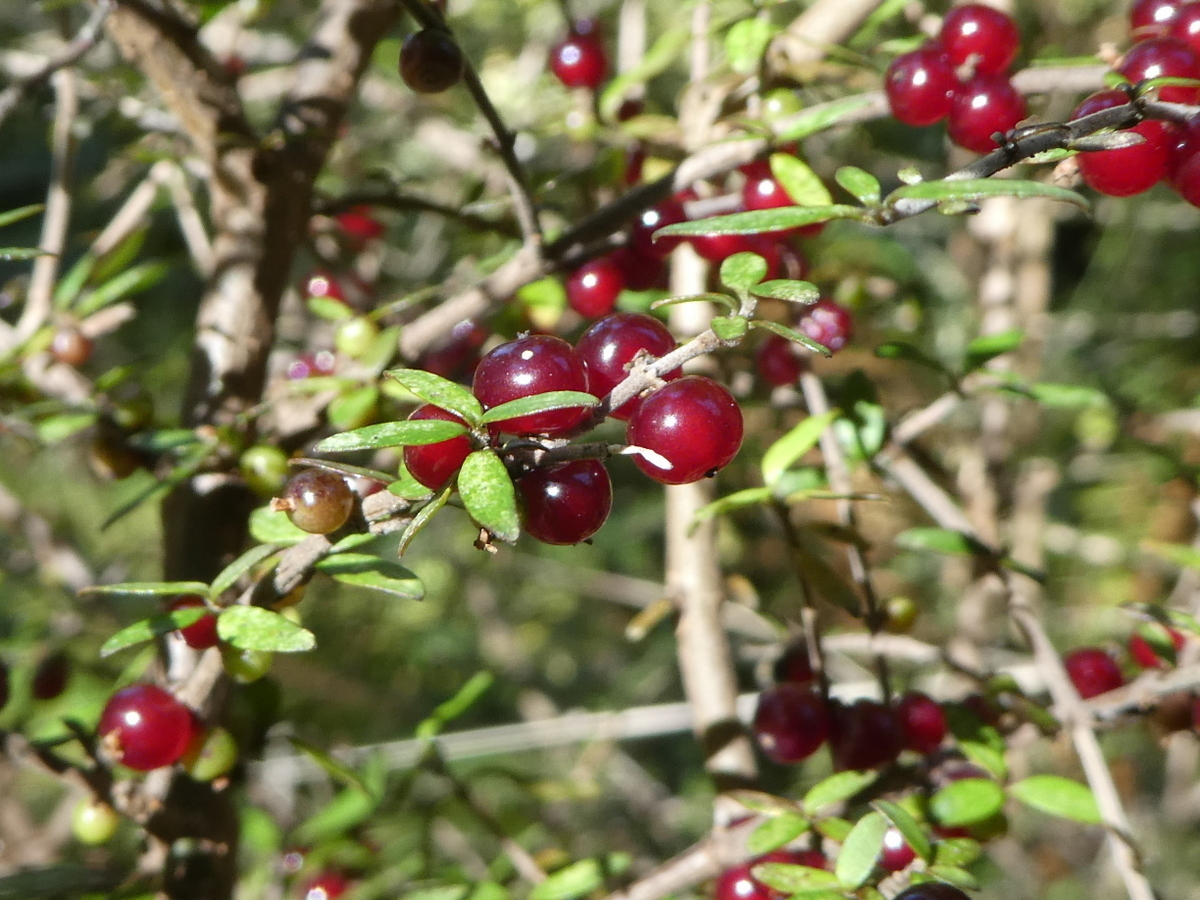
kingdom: Plantae
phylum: Tracheophyta
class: Magnoliopsida
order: Gentianales
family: Rubiaceae
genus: Coprosma
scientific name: Coprosma rhamnoides
